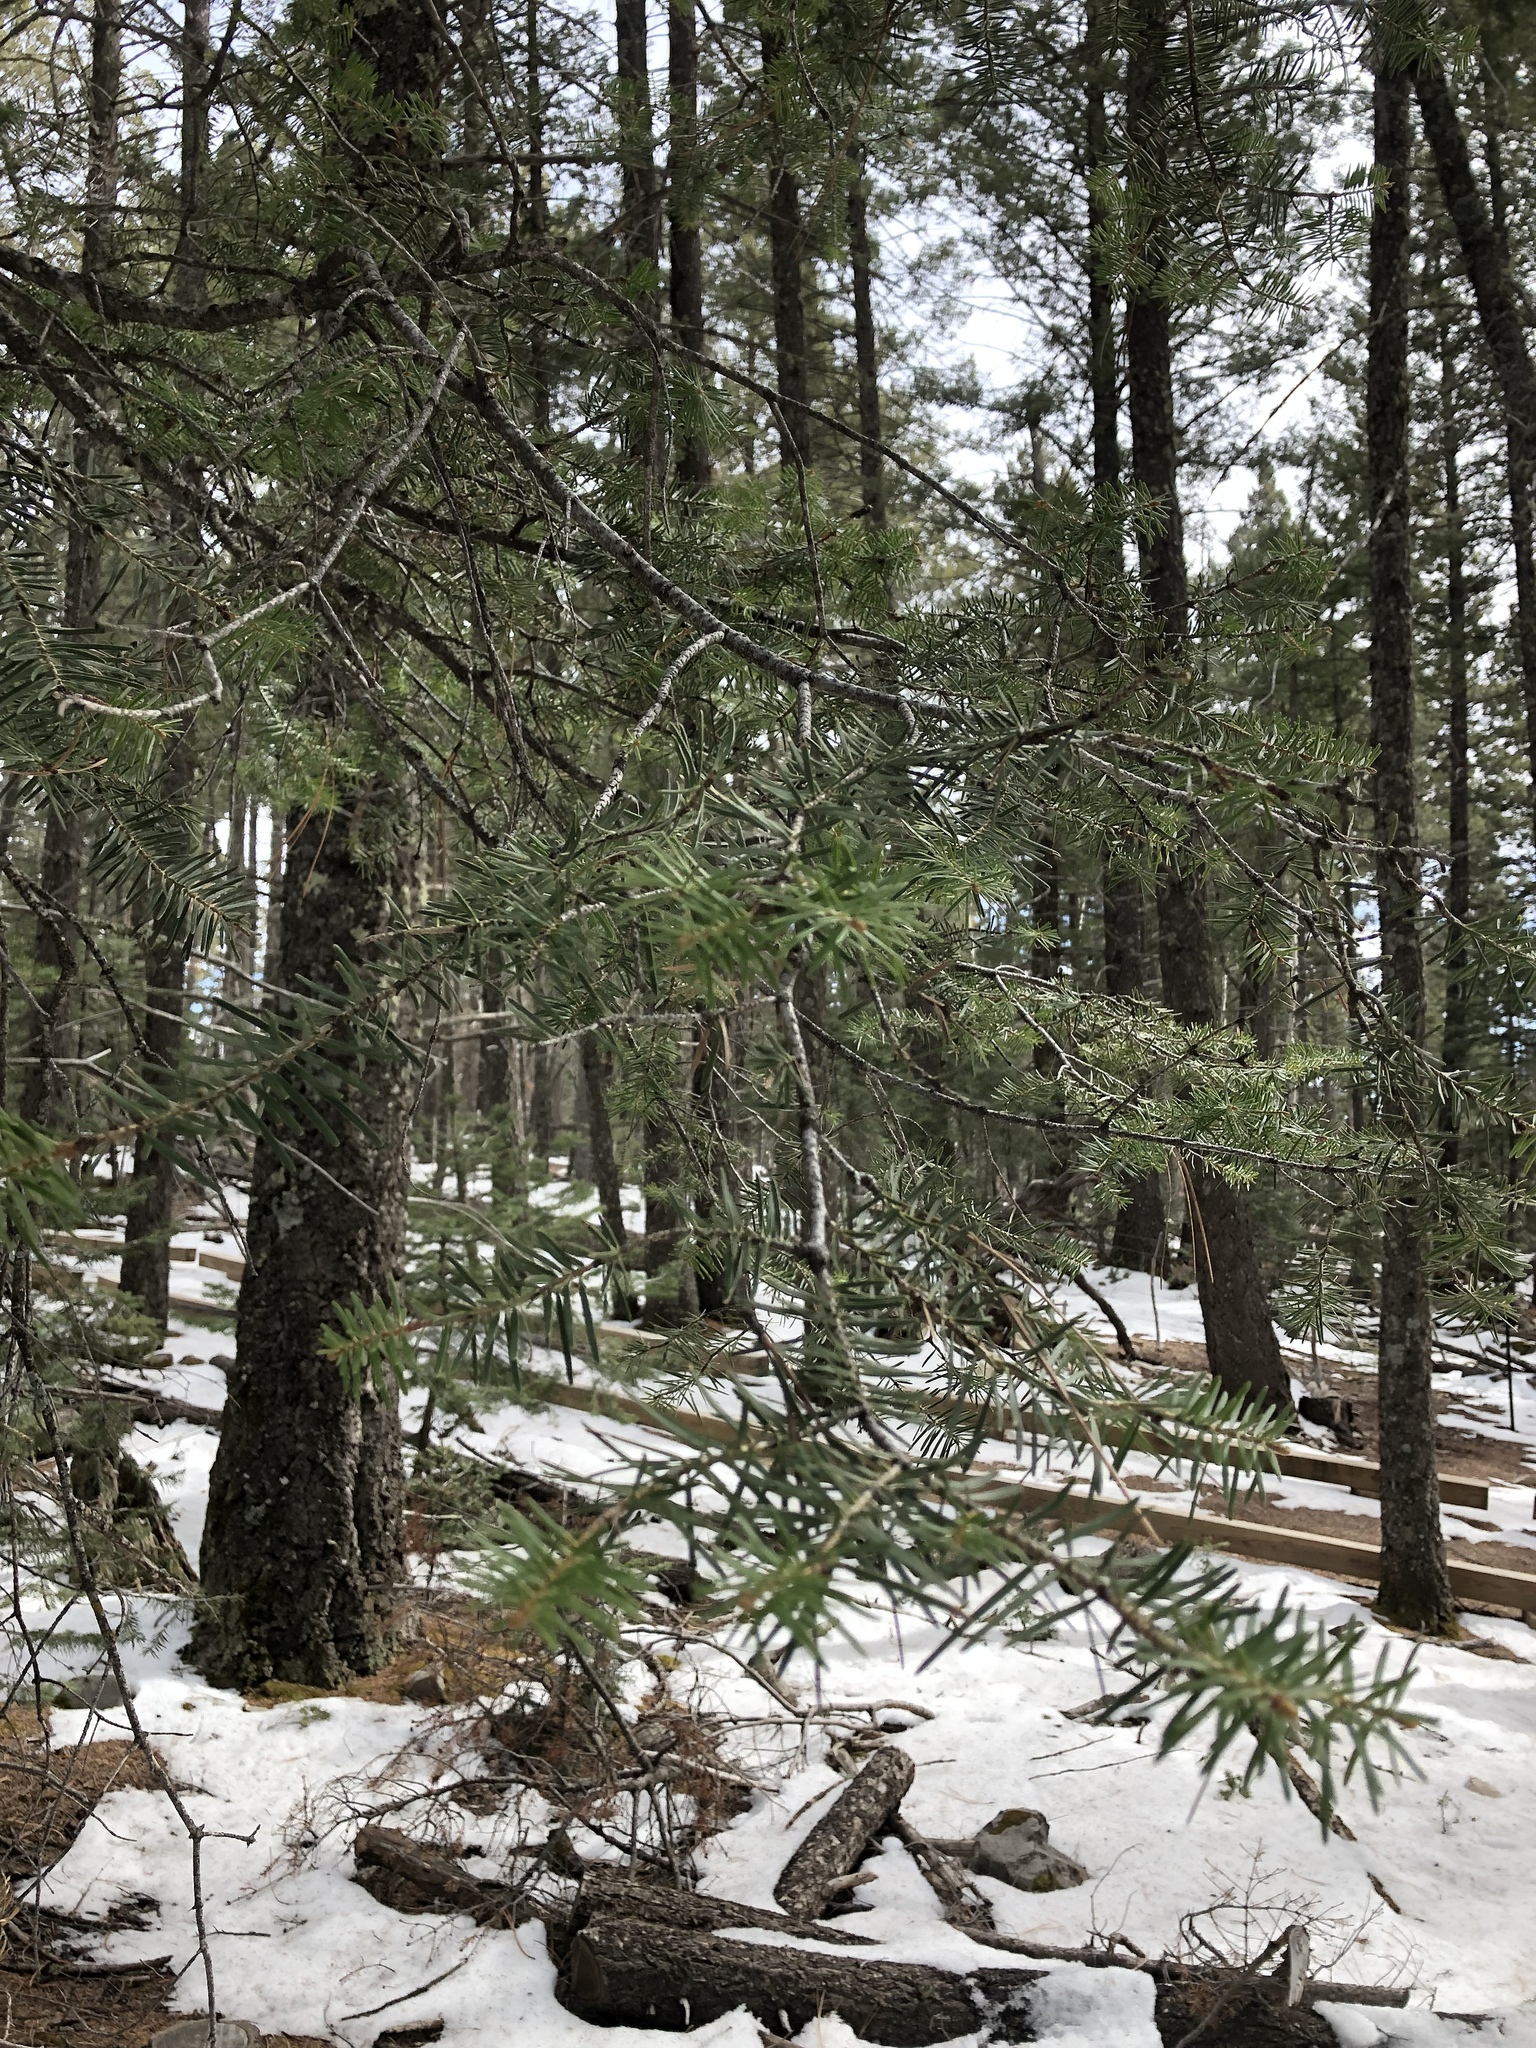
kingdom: Plantae
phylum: Tracheophyta
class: Pinopsida
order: Pinales
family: Pinaceae
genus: Pseudotsuga
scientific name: Pseudotsuga menziesii
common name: Douglas fir
